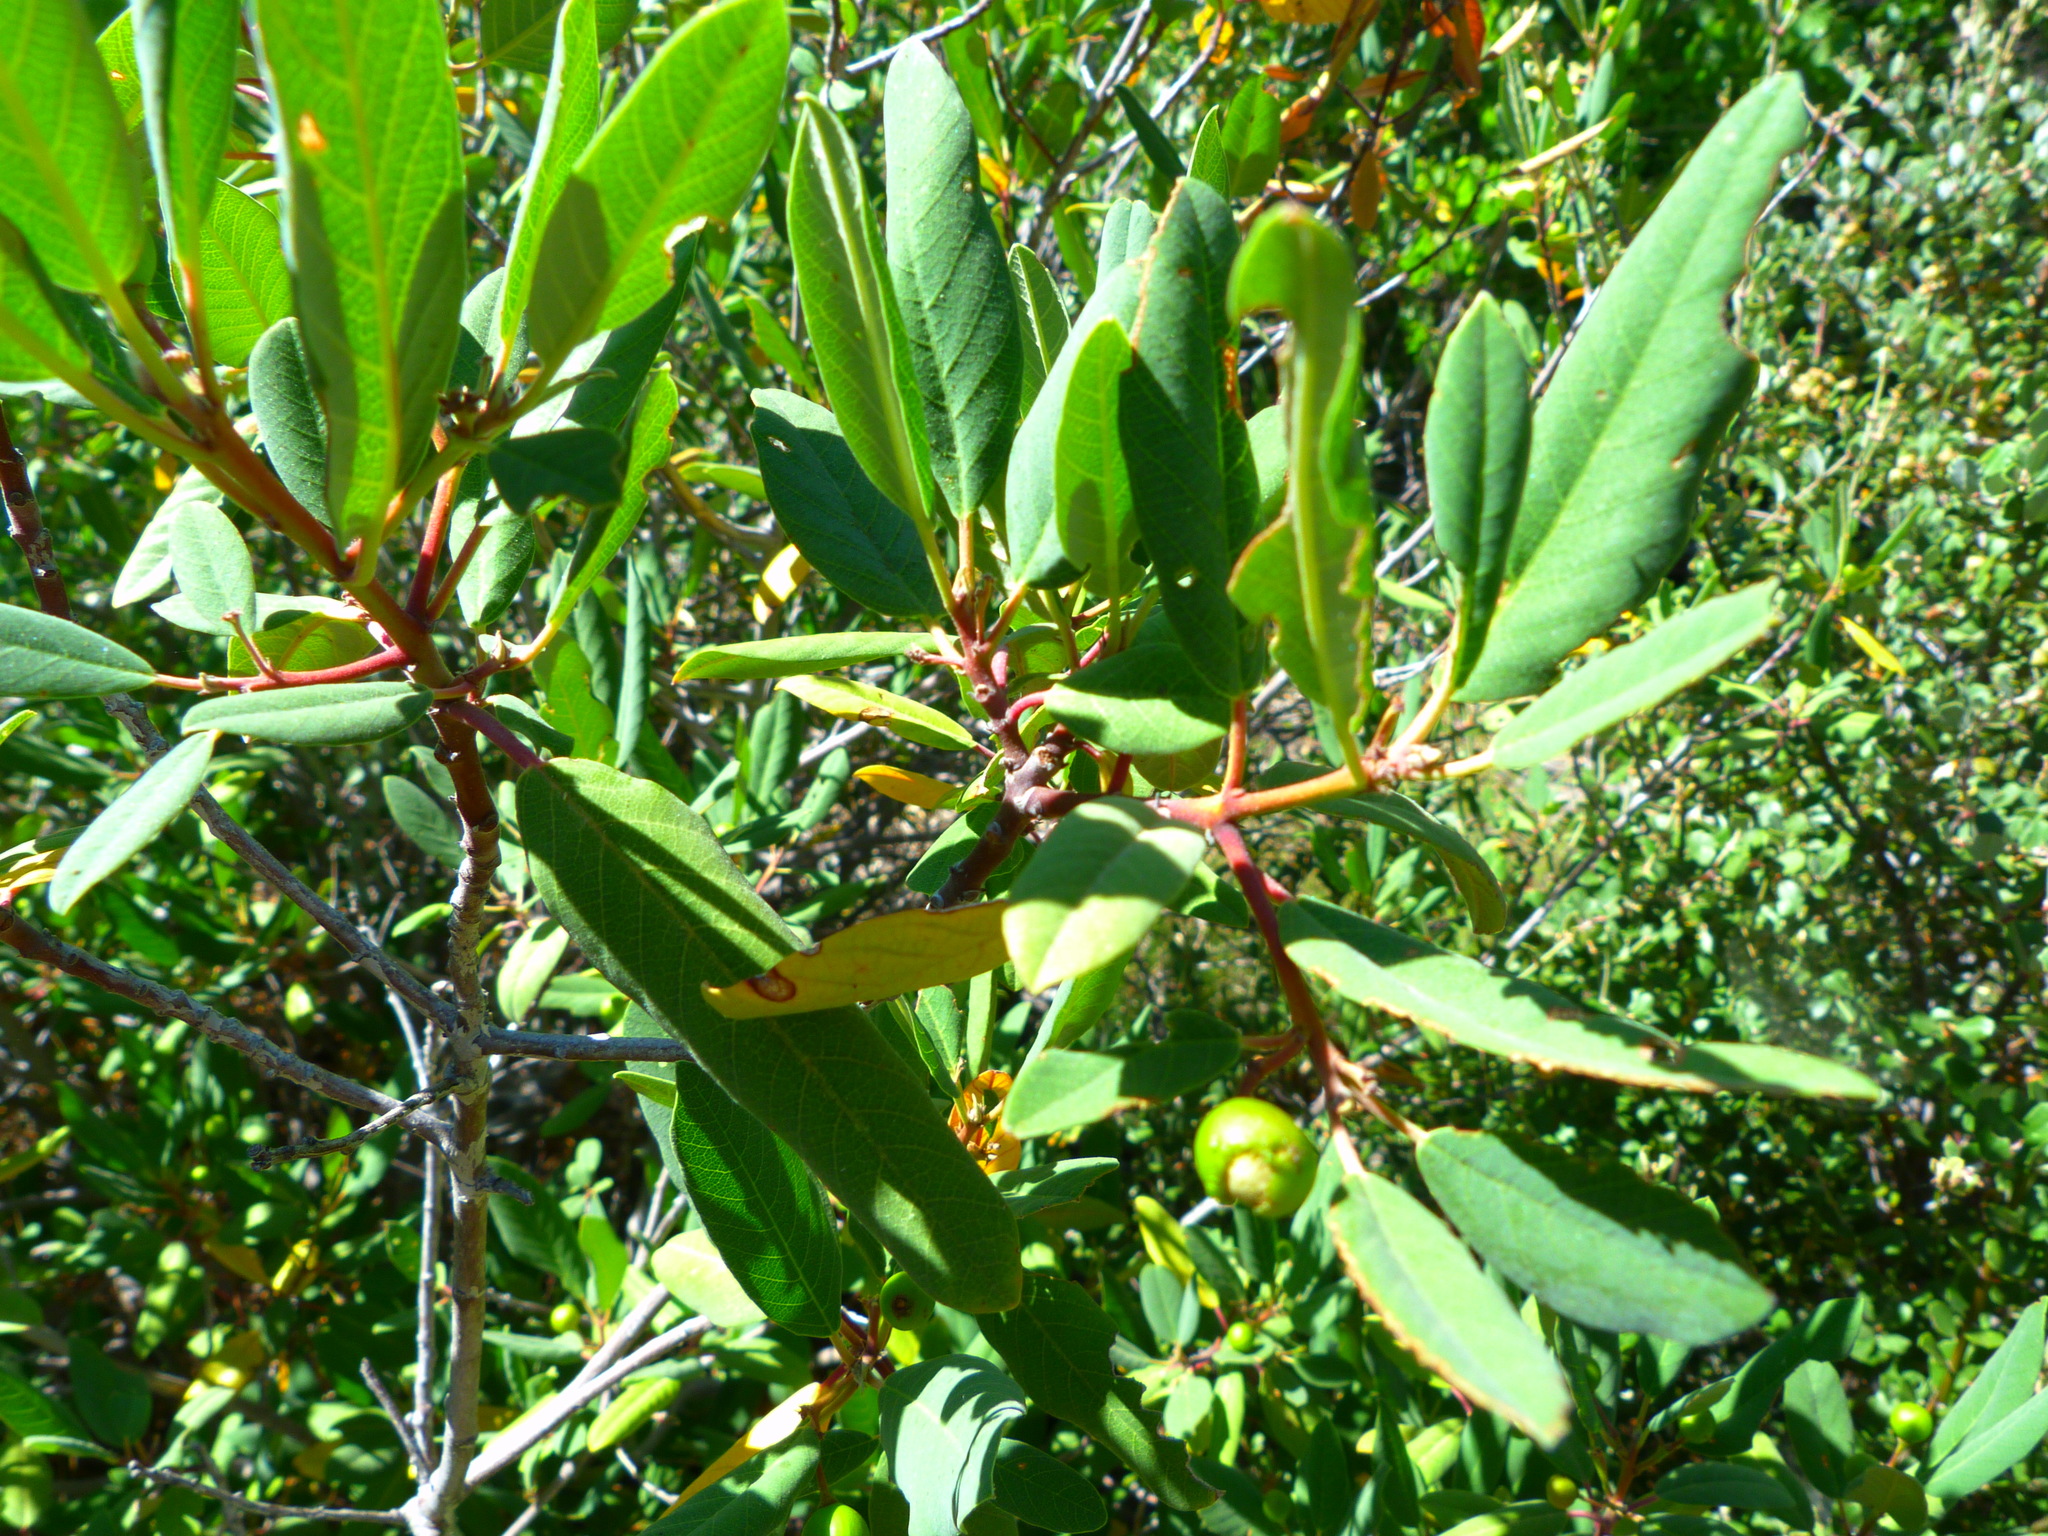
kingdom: Plantae
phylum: Tracheophyta
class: Magnoliopsida
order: Rosales
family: Rhamnaceae
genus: Frangula
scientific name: Frangula californica
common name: California buckthorn
